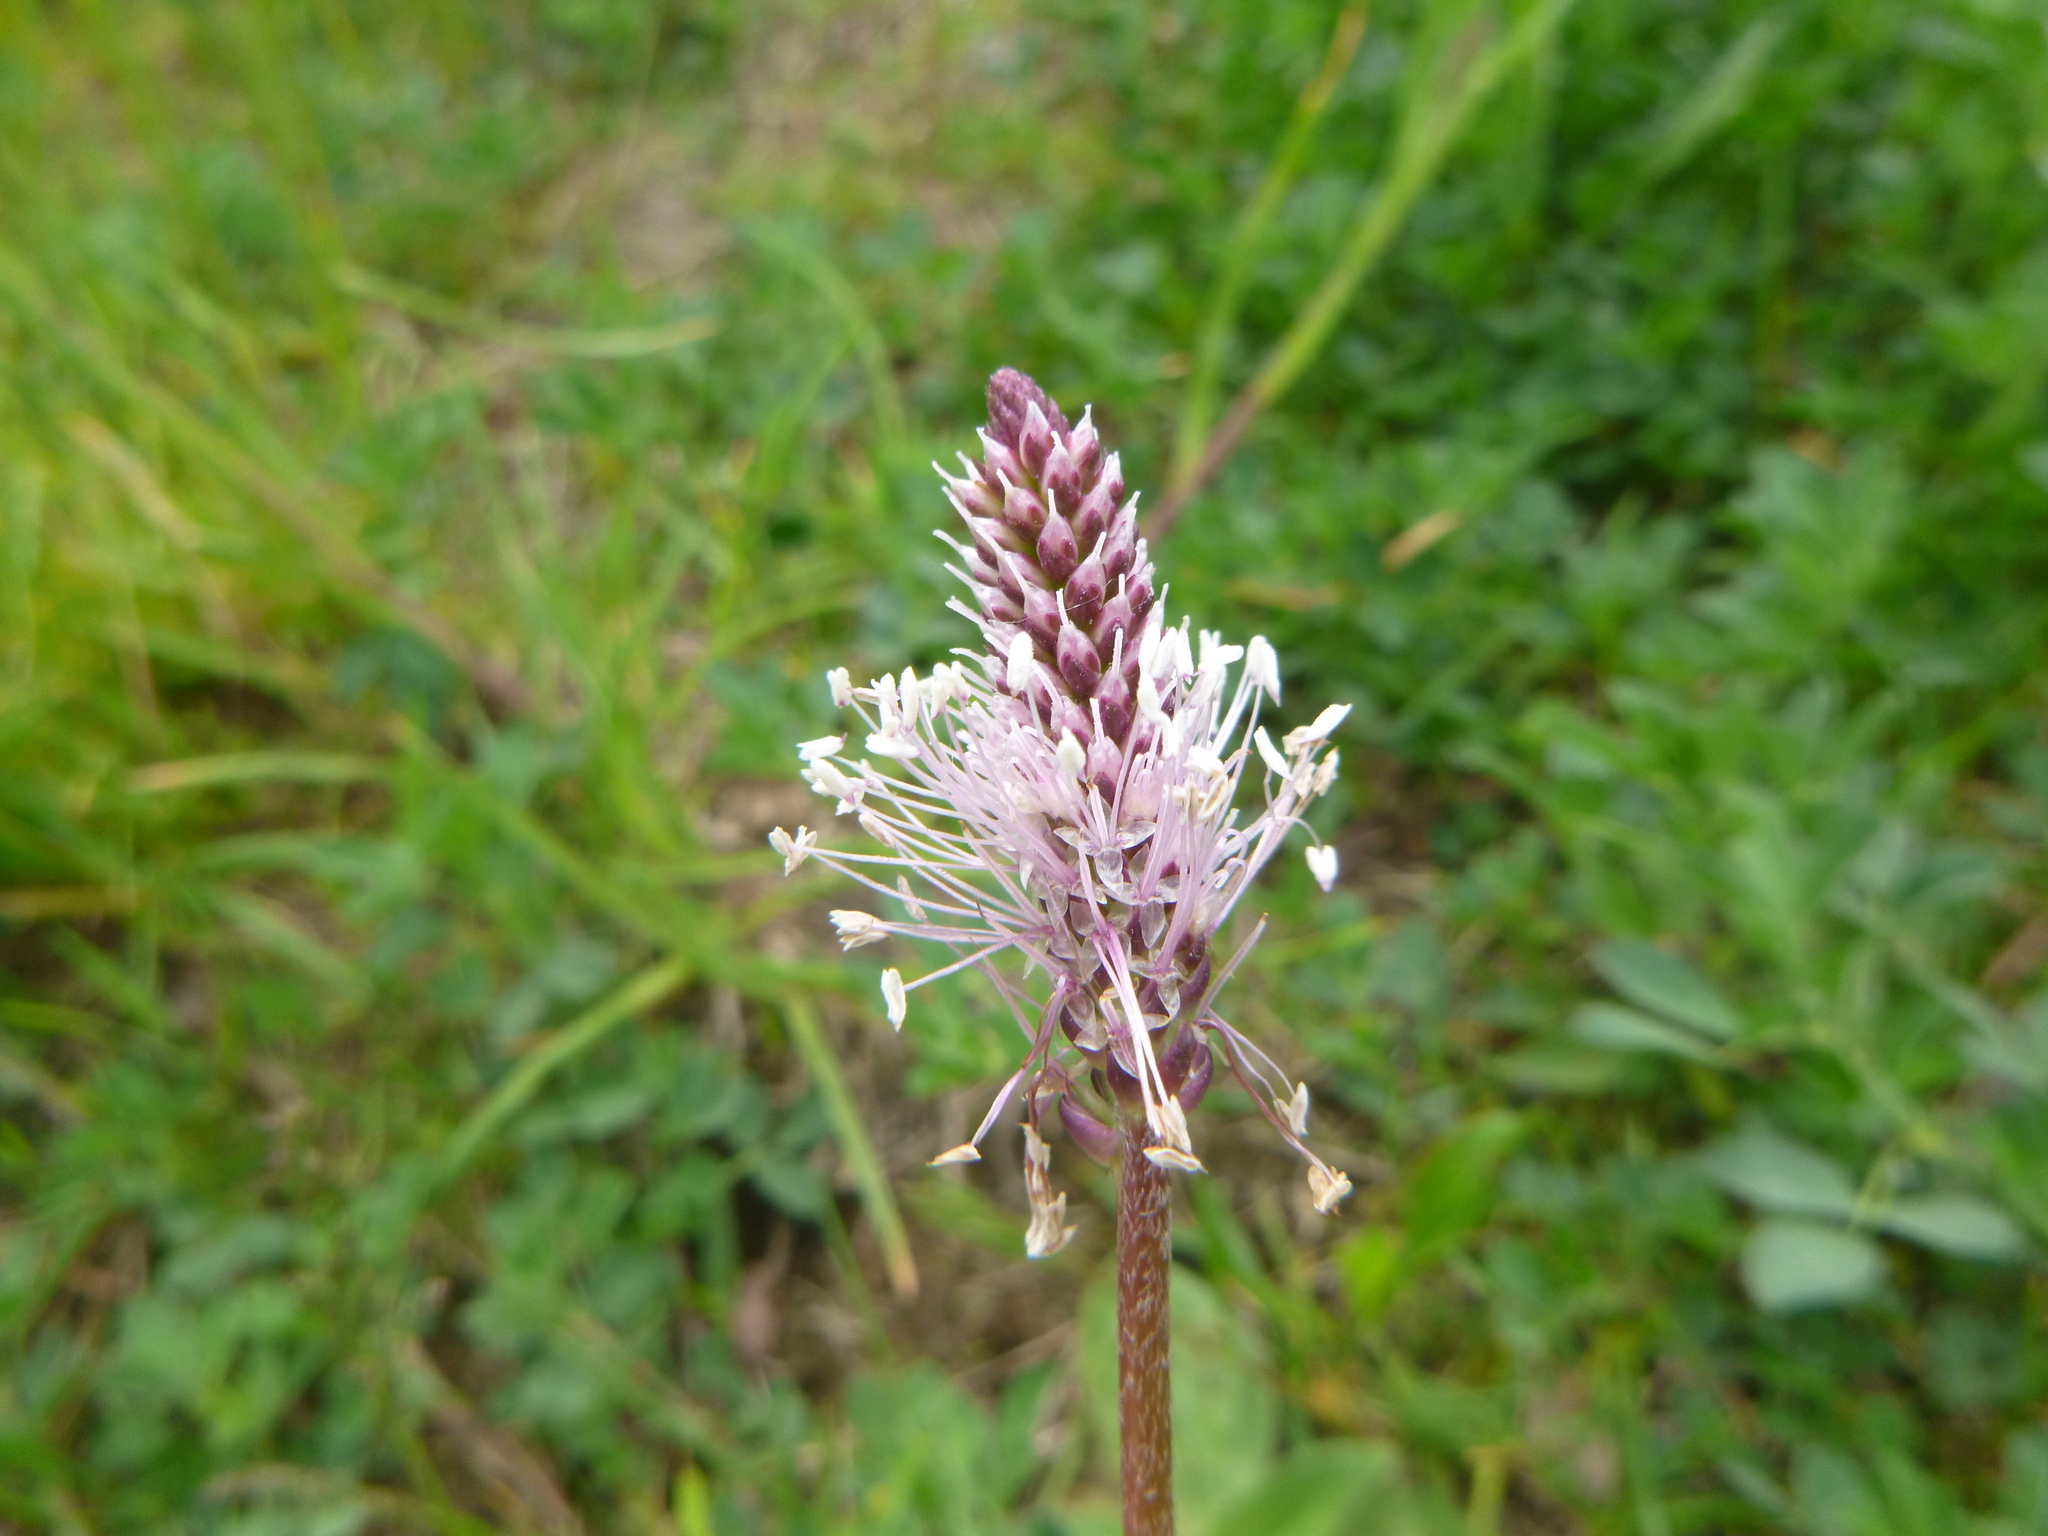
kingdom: Plantae
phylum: Tracheophyta
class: Magnoliopsida
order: Lamiales
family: Plantaginaceae
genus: Plantago
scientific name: Plantago media
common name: Hoary plantain
